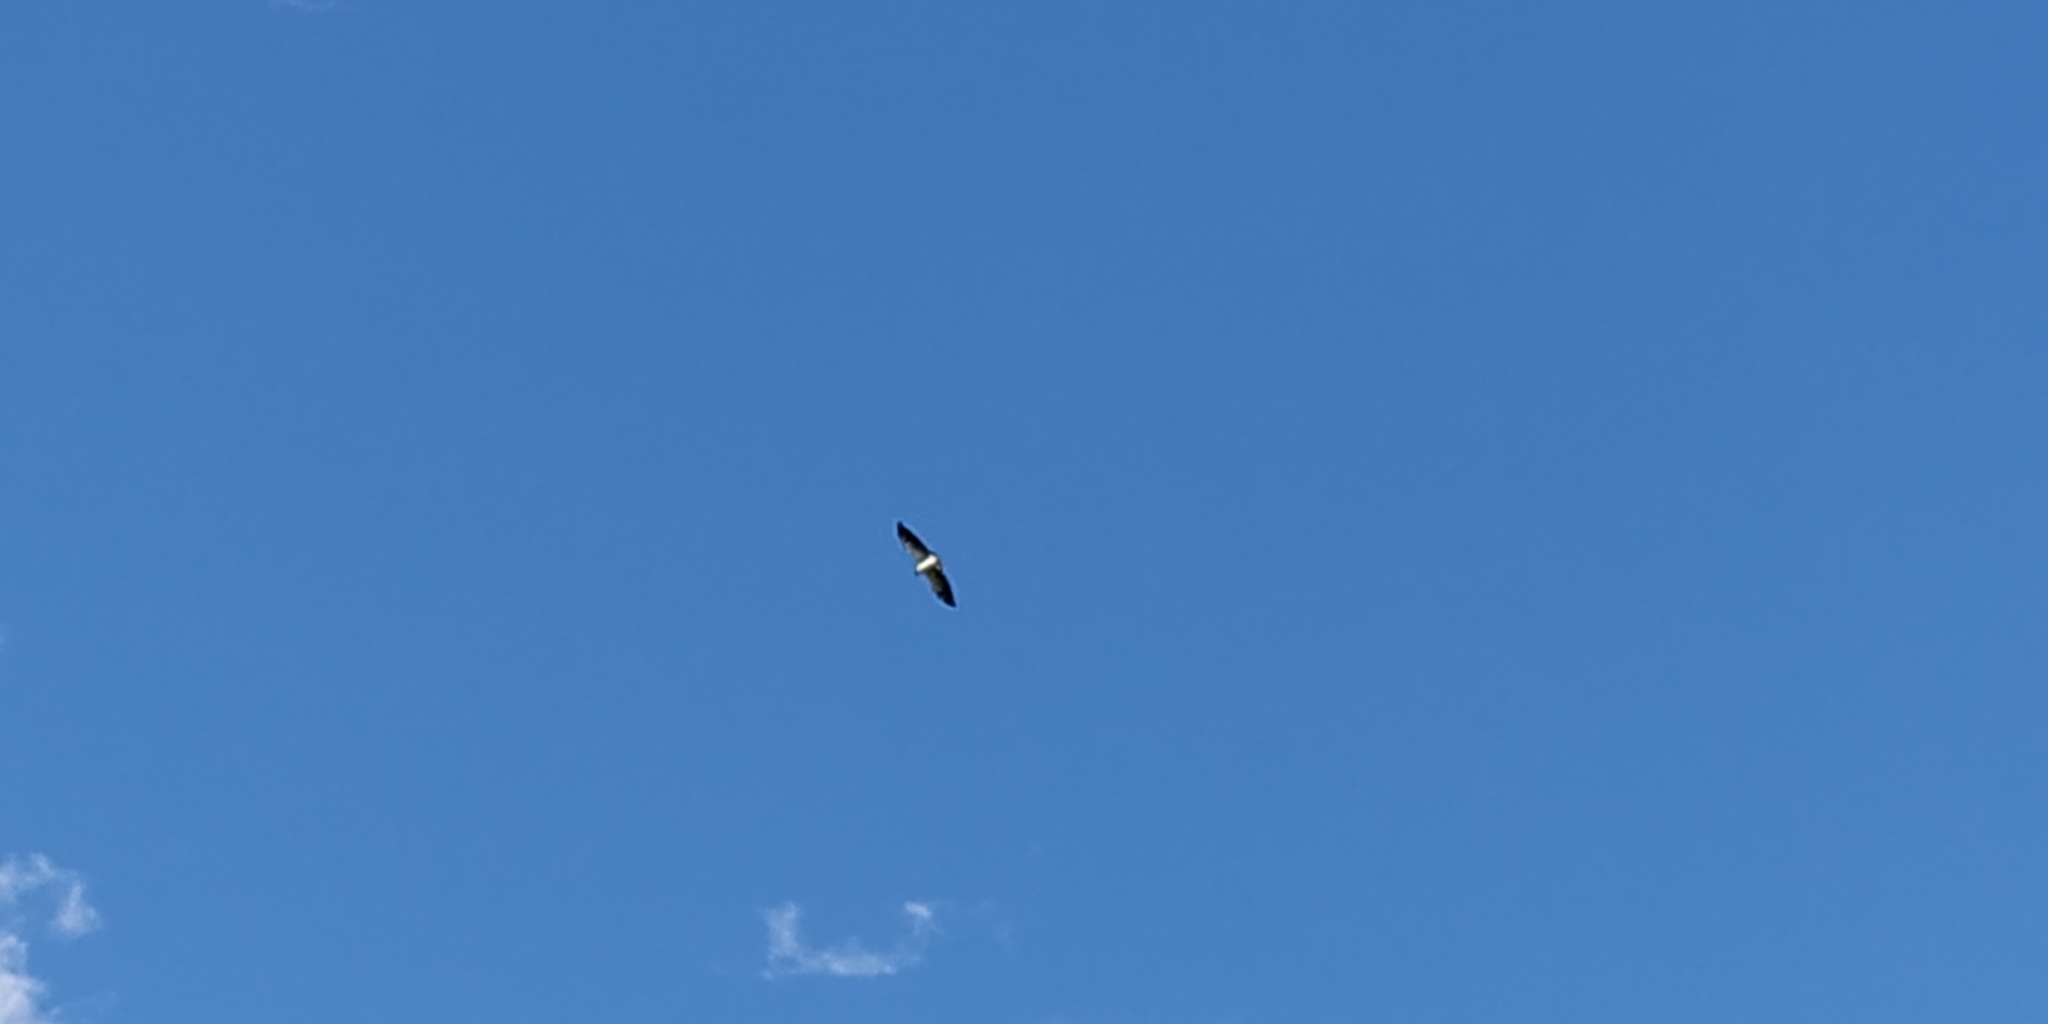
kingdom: Animalia
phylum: Chordata
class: Aves
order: Accipitriformes
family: Accipitridae
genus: Buteo
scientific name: Buteo albicaudatus
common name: White-tailed hawk
